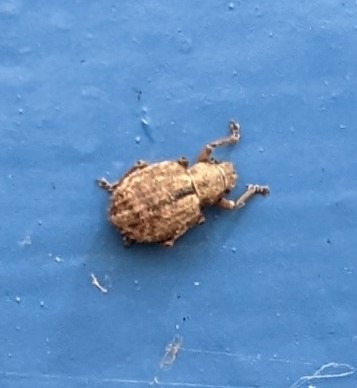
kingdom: Animalia
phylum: Arthropoda
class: Insecta
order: Coleoptera
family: Curculionidae
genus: Strophosoma
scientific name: Strophosoma melanogrammum
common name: Weevil
